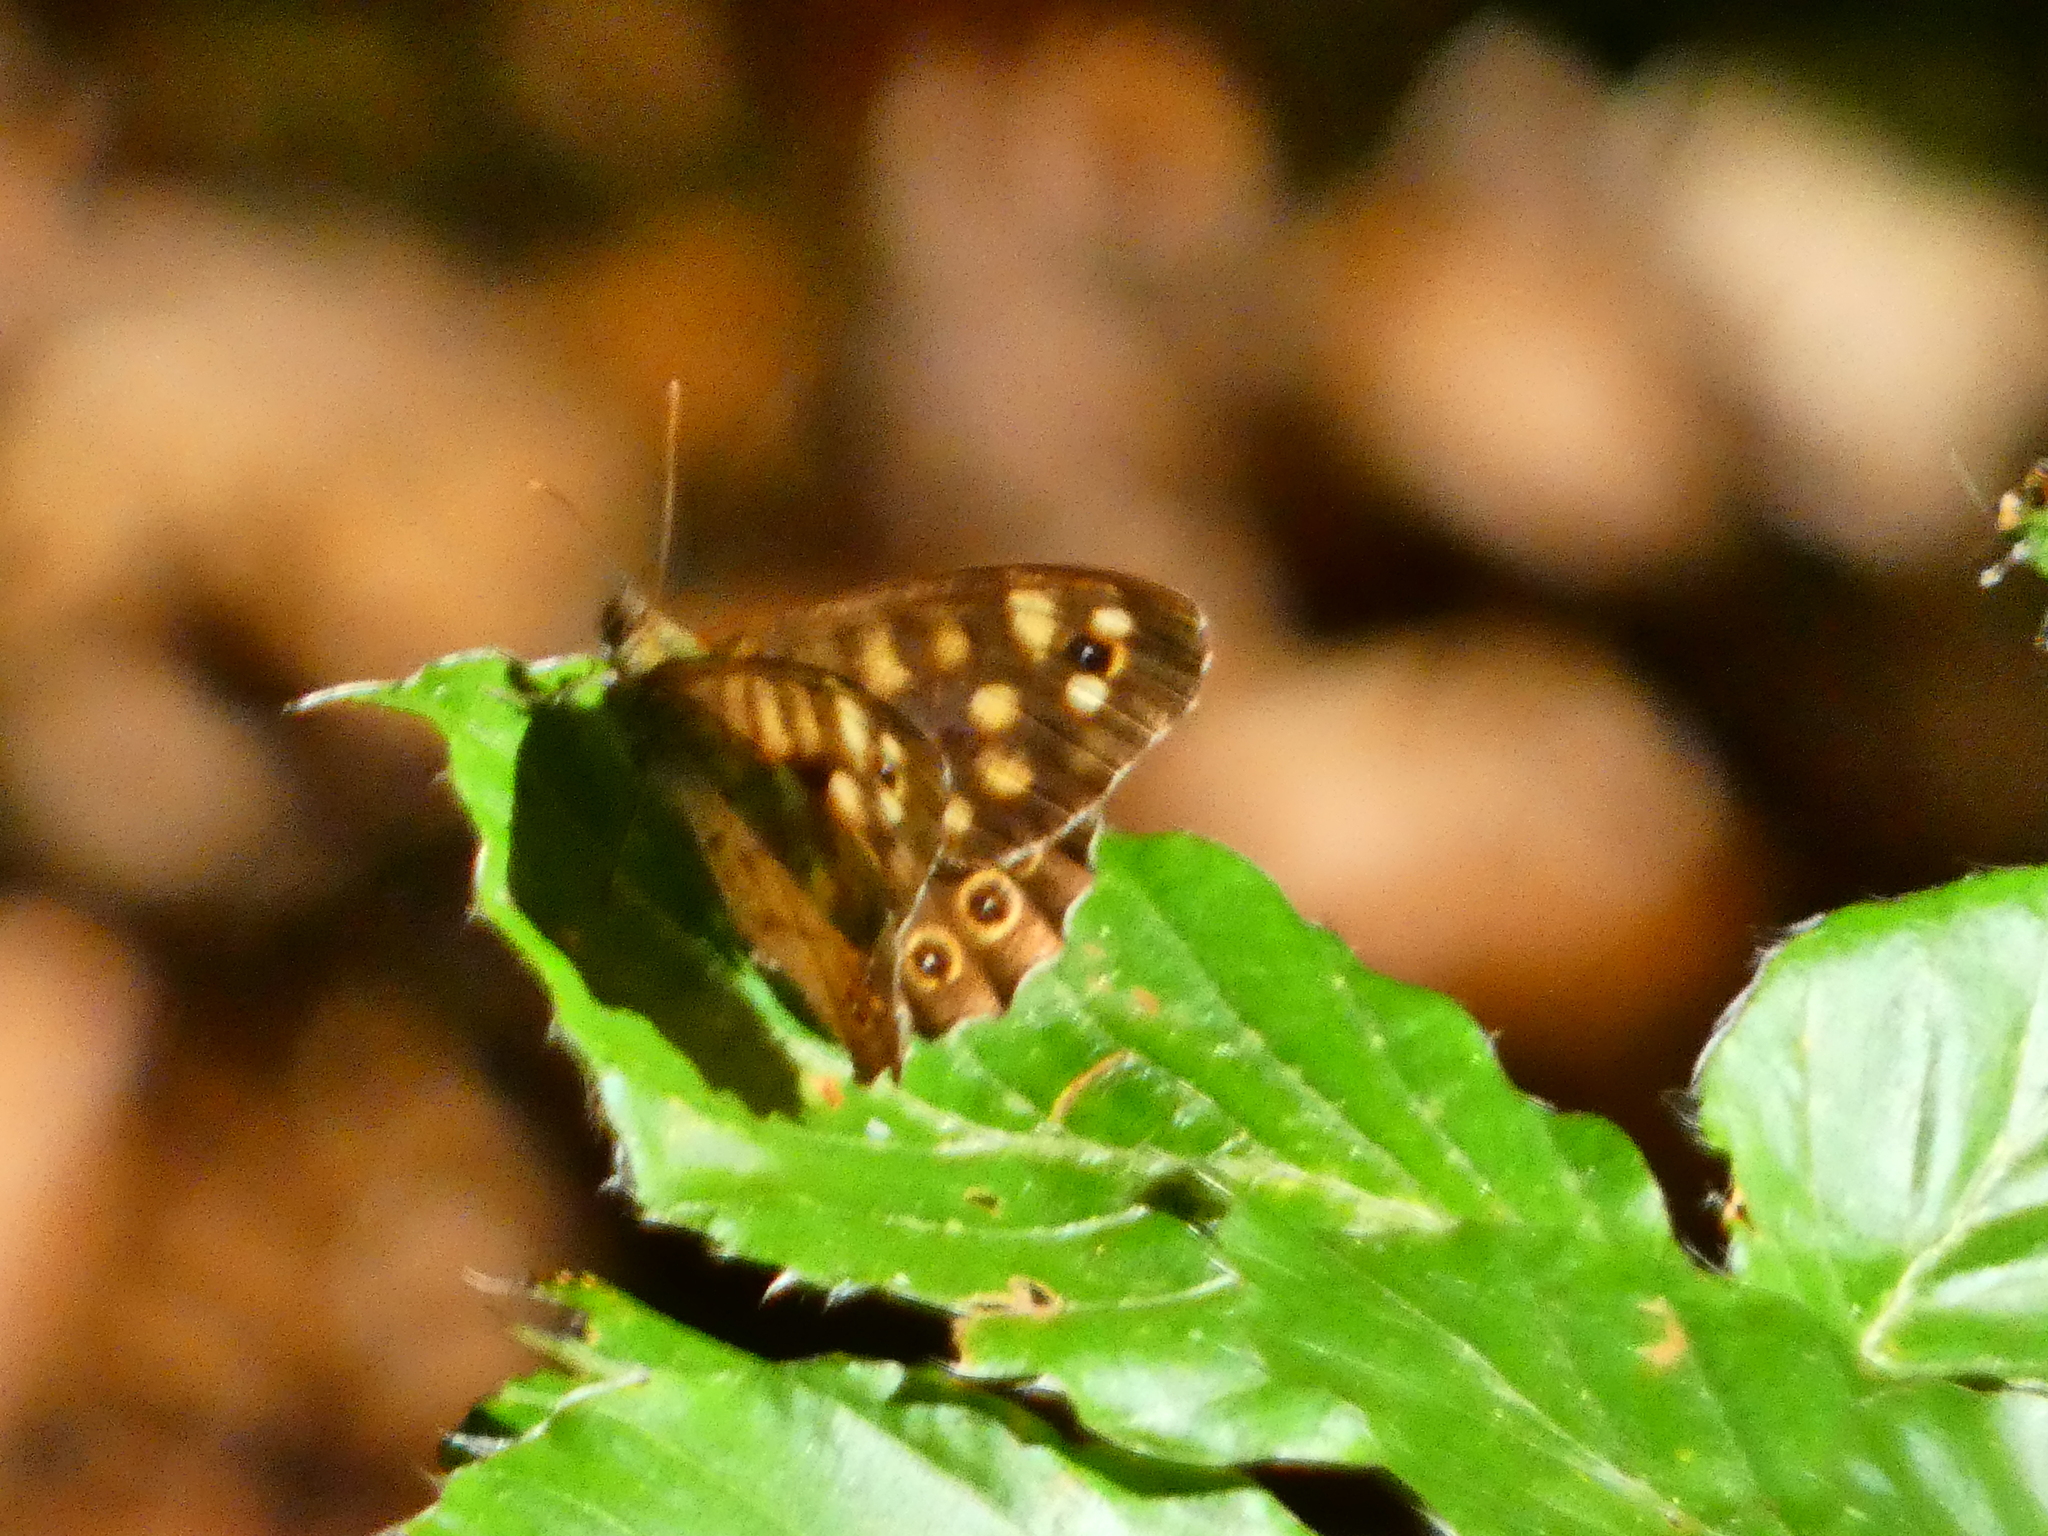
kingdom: Animalia
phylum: Arthropoda
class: Insecta
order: Lepidoptera
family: Nymphalidae
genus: Pararge
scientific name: Pararge aegeria
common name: Speckled wood
